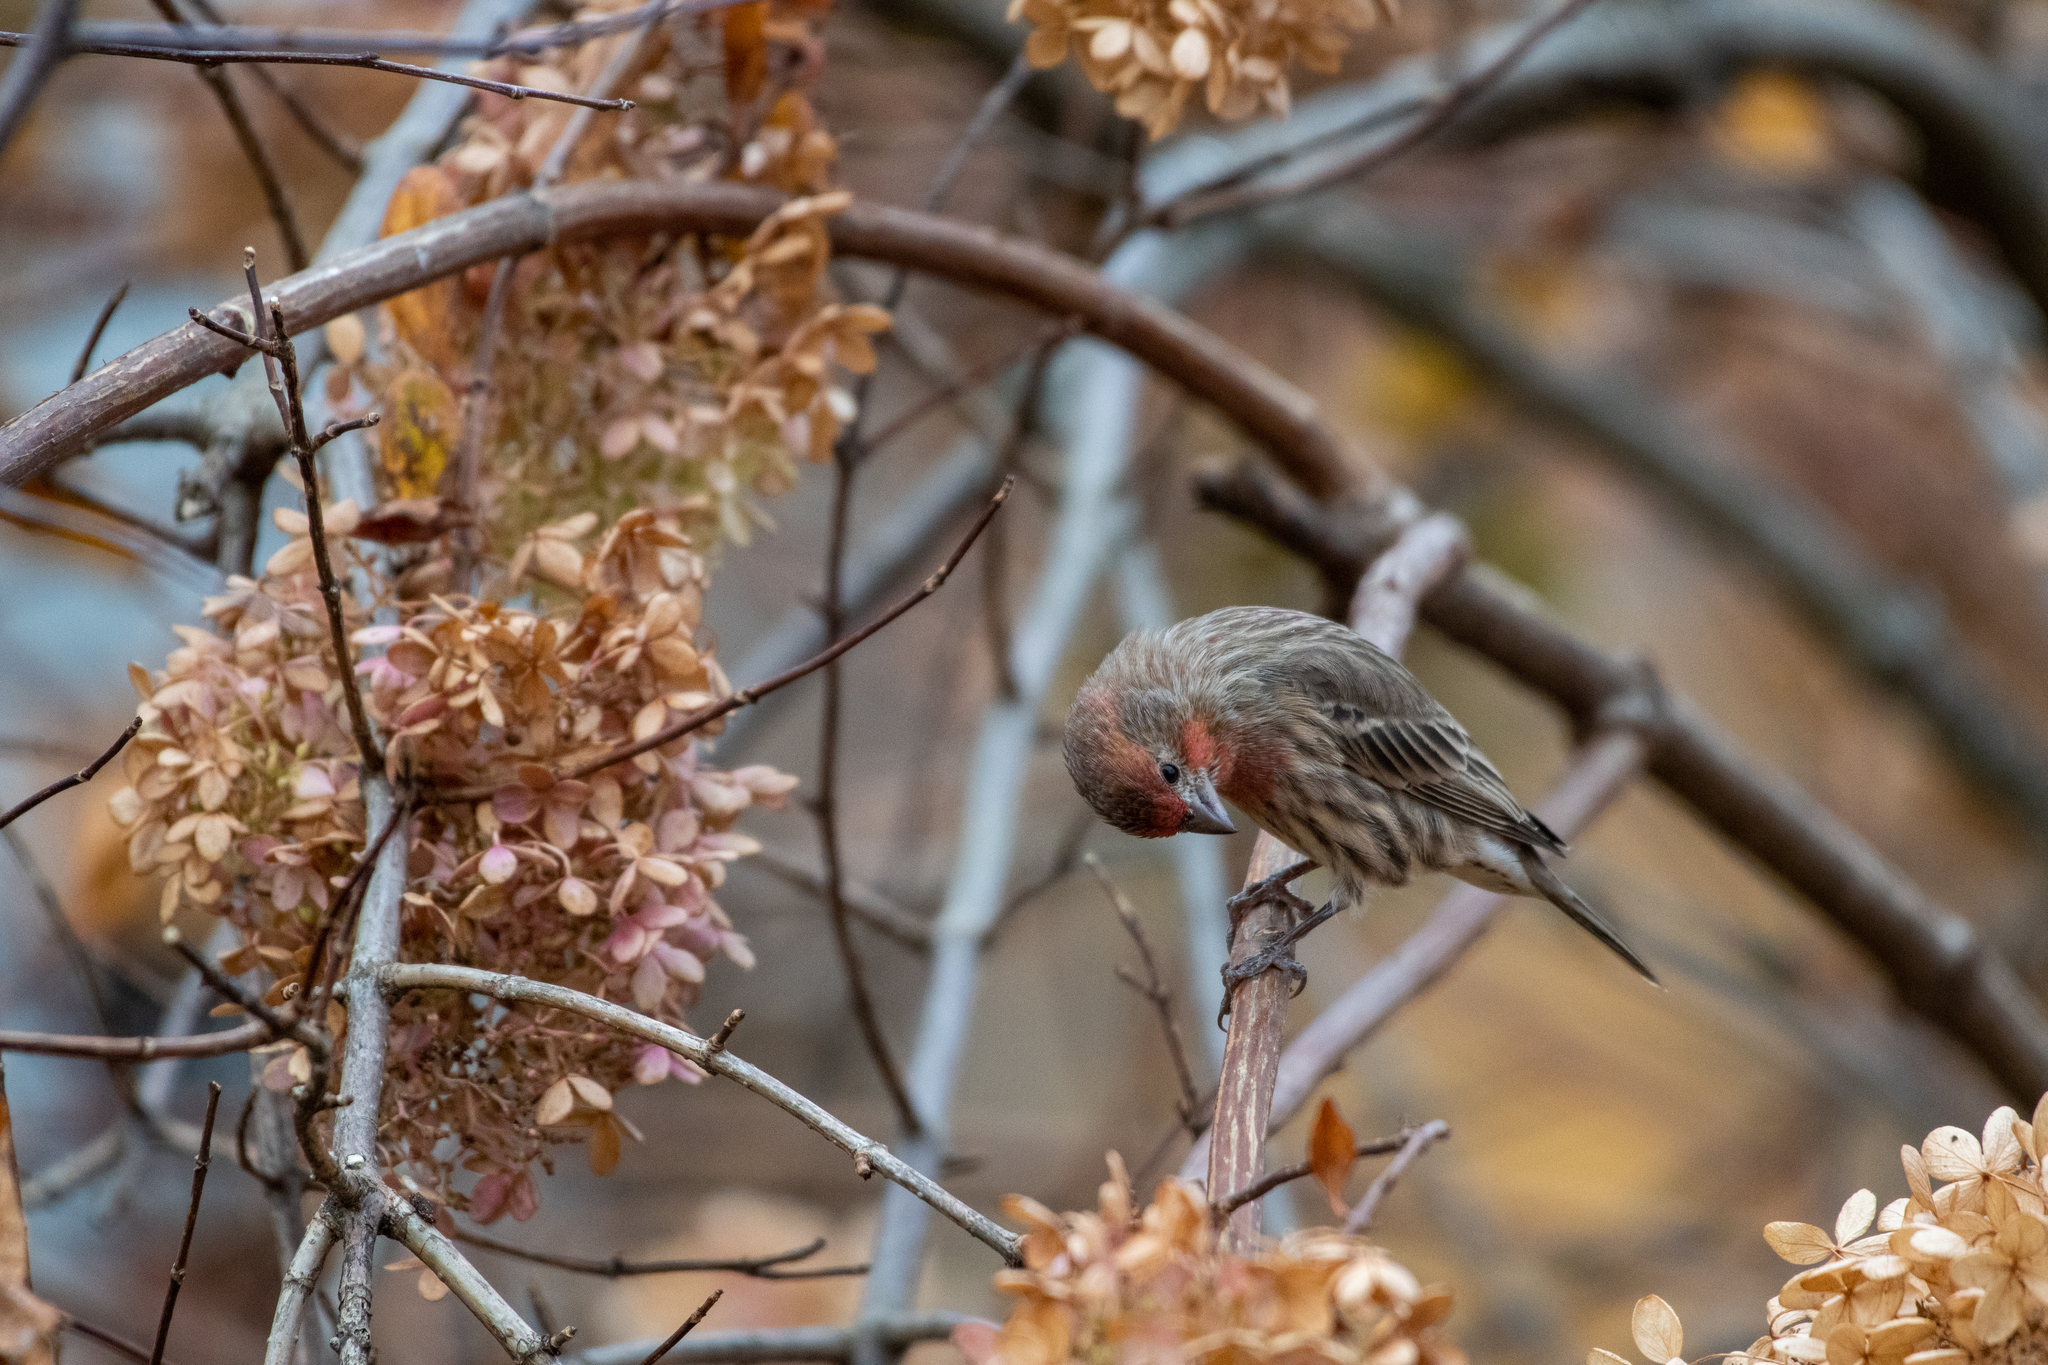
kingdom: Animalia
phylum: Chordata
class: Aves
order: Passeriformes
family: Fringillidae
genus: Haemorhous
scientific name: Haemorhous mexicanus
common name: House finch
